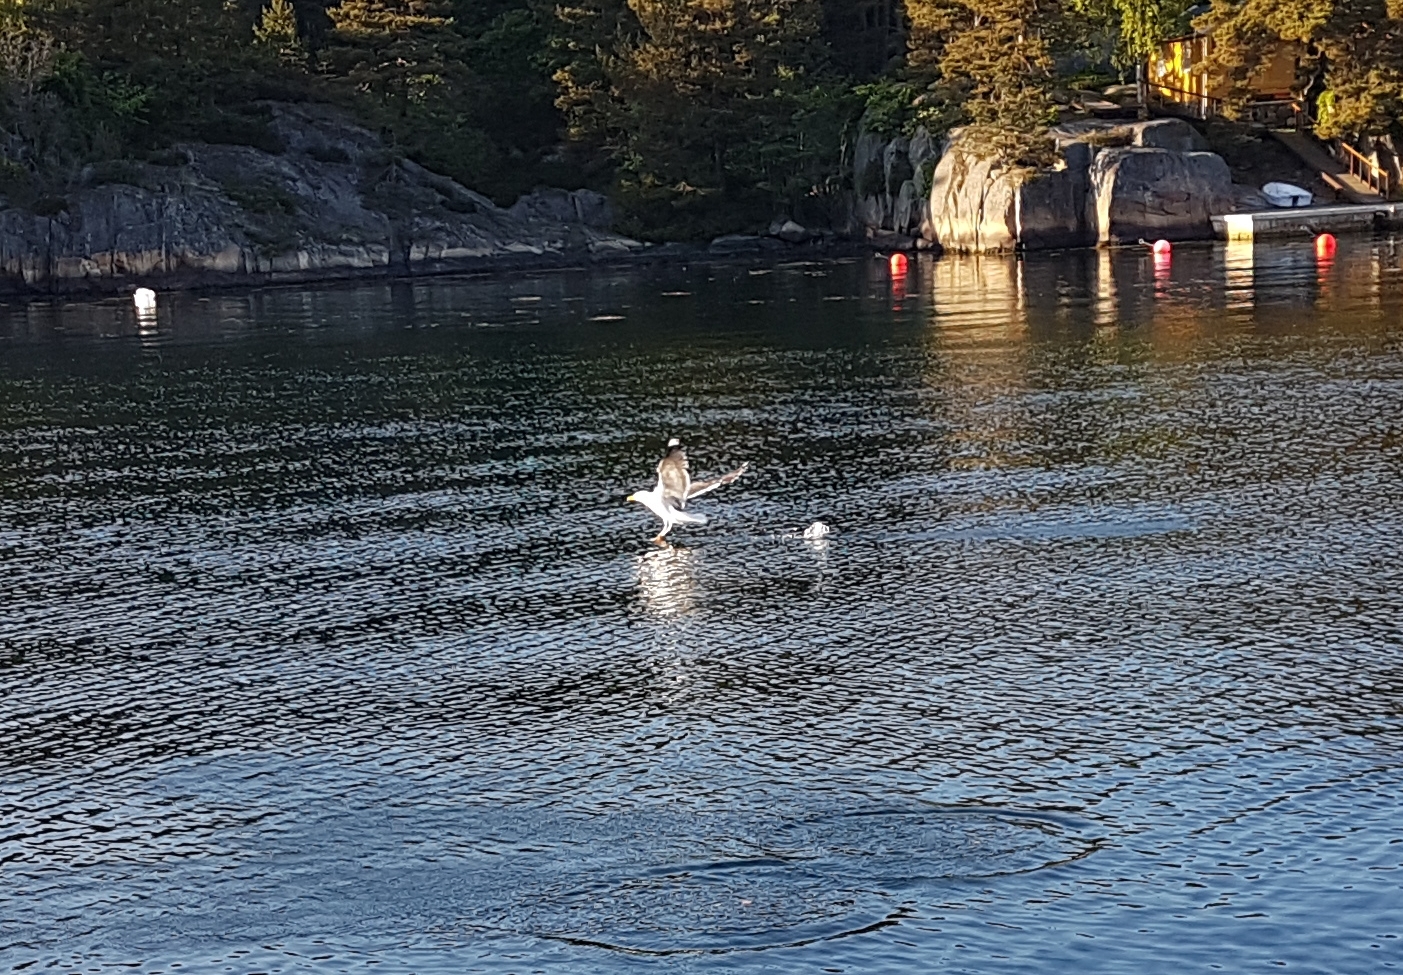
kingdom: Animalia
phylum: Chordata
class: Aves
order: Charadriiformes
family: Laridae
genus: Larus
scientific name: Larus marinus
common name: Great black-backed gull
